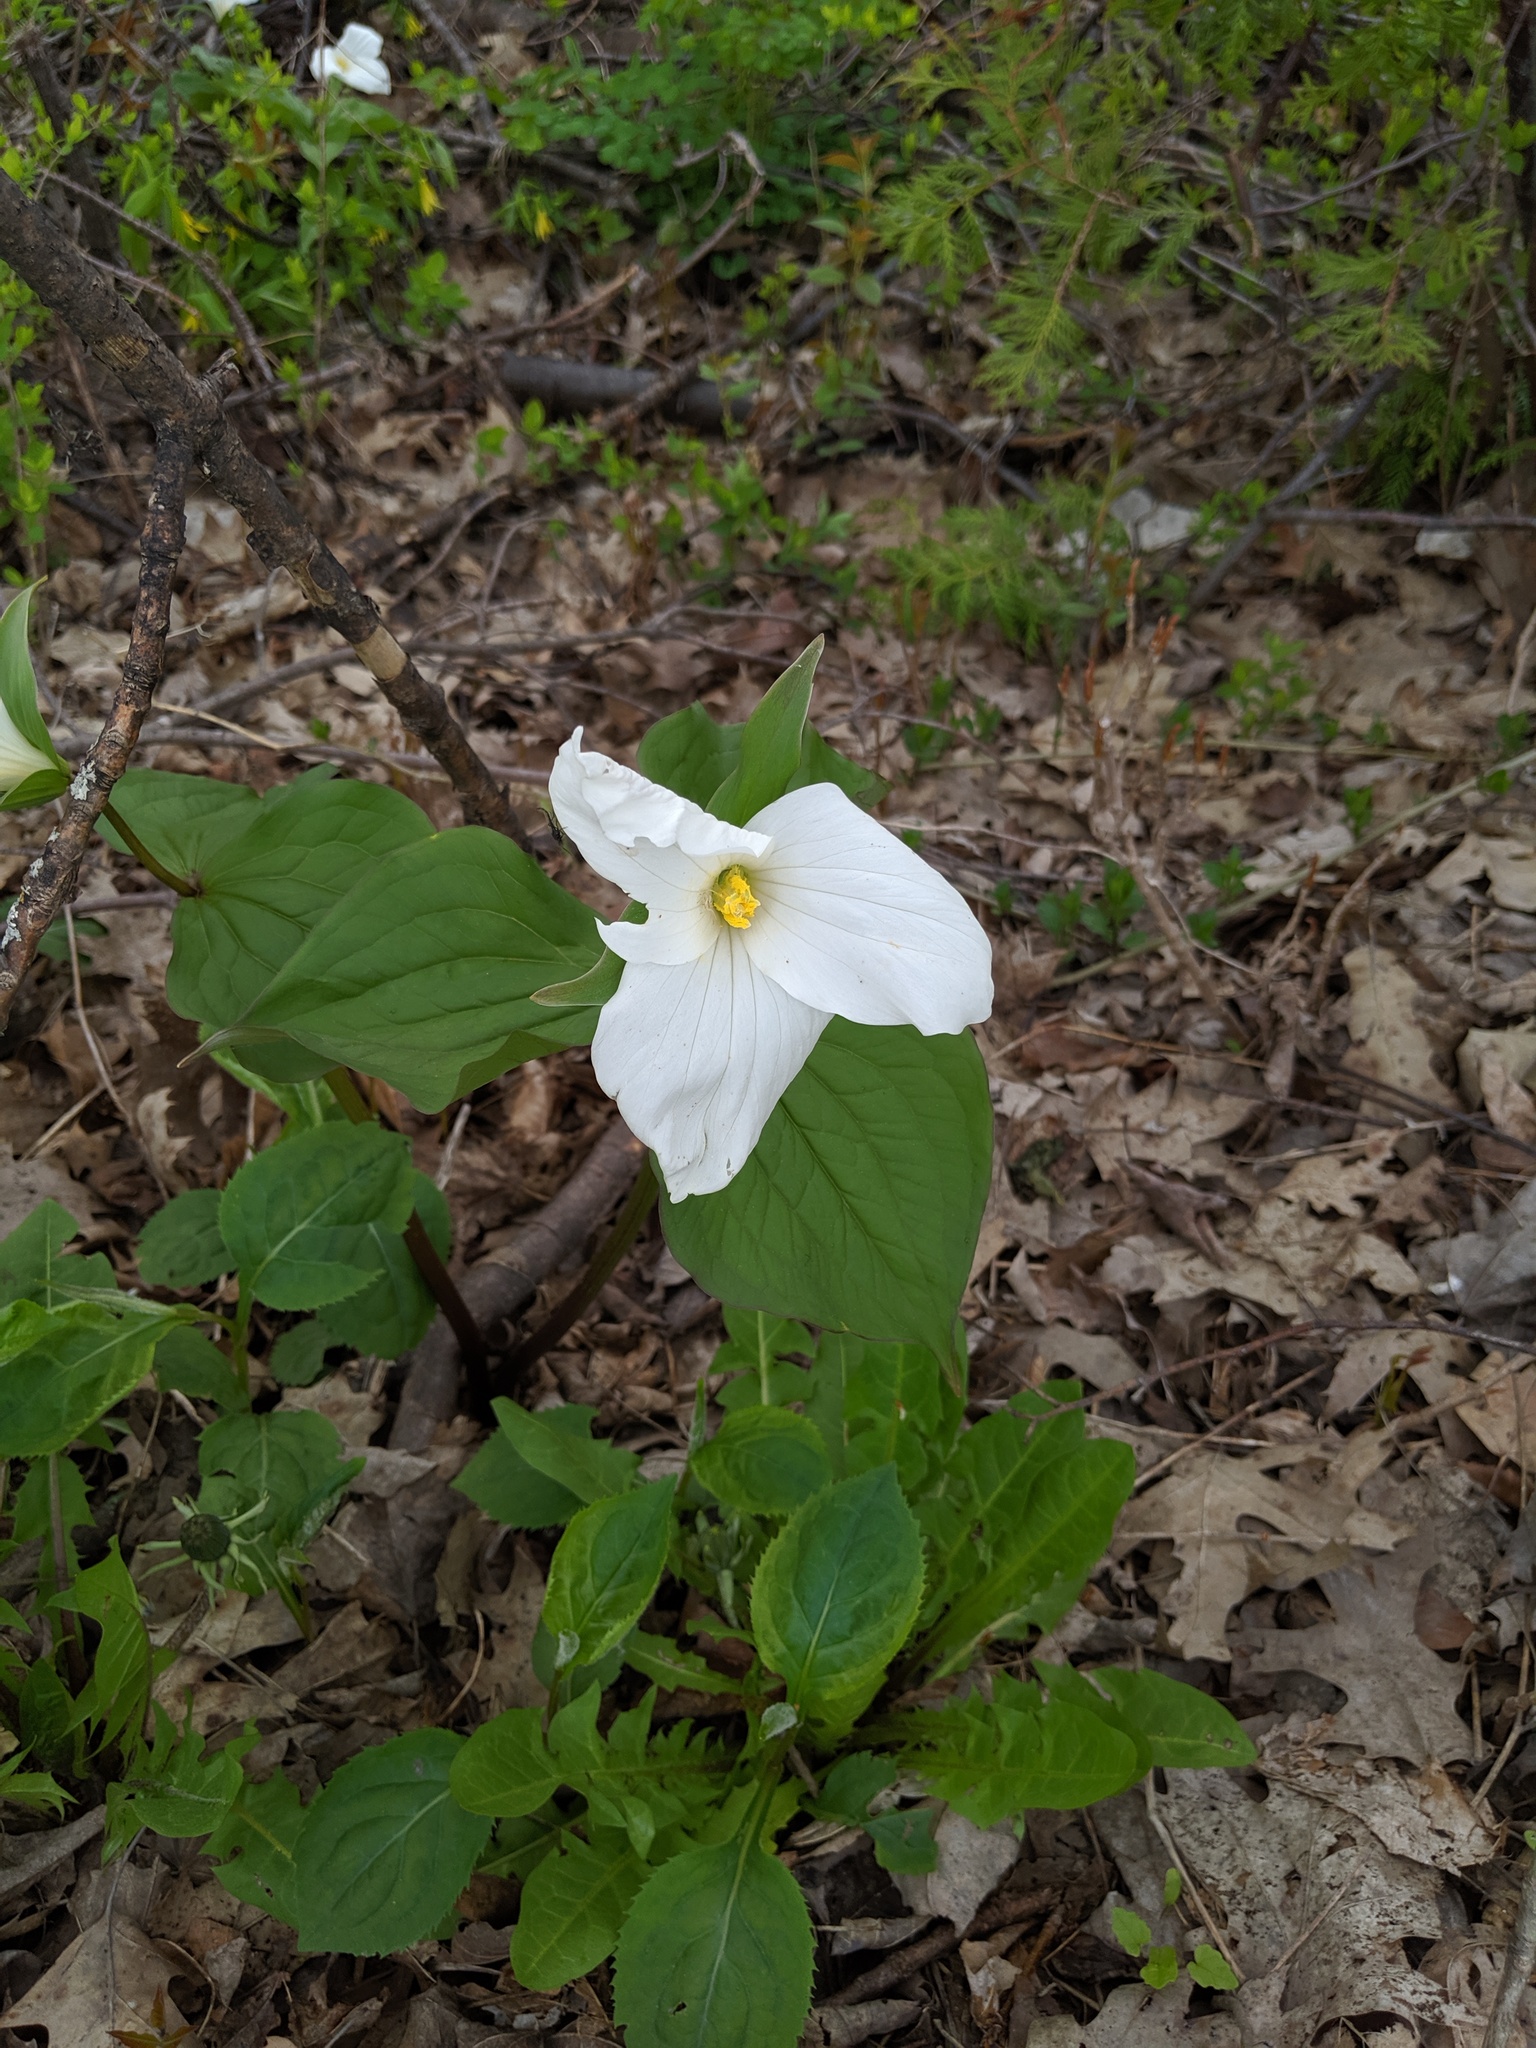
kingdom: Plantae
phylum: Tracheophyta
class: Liliopsida
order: Liliales
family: Melanthiaceae
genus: Trillium
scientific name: Trillium grandiflorum
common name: Great white trillium
